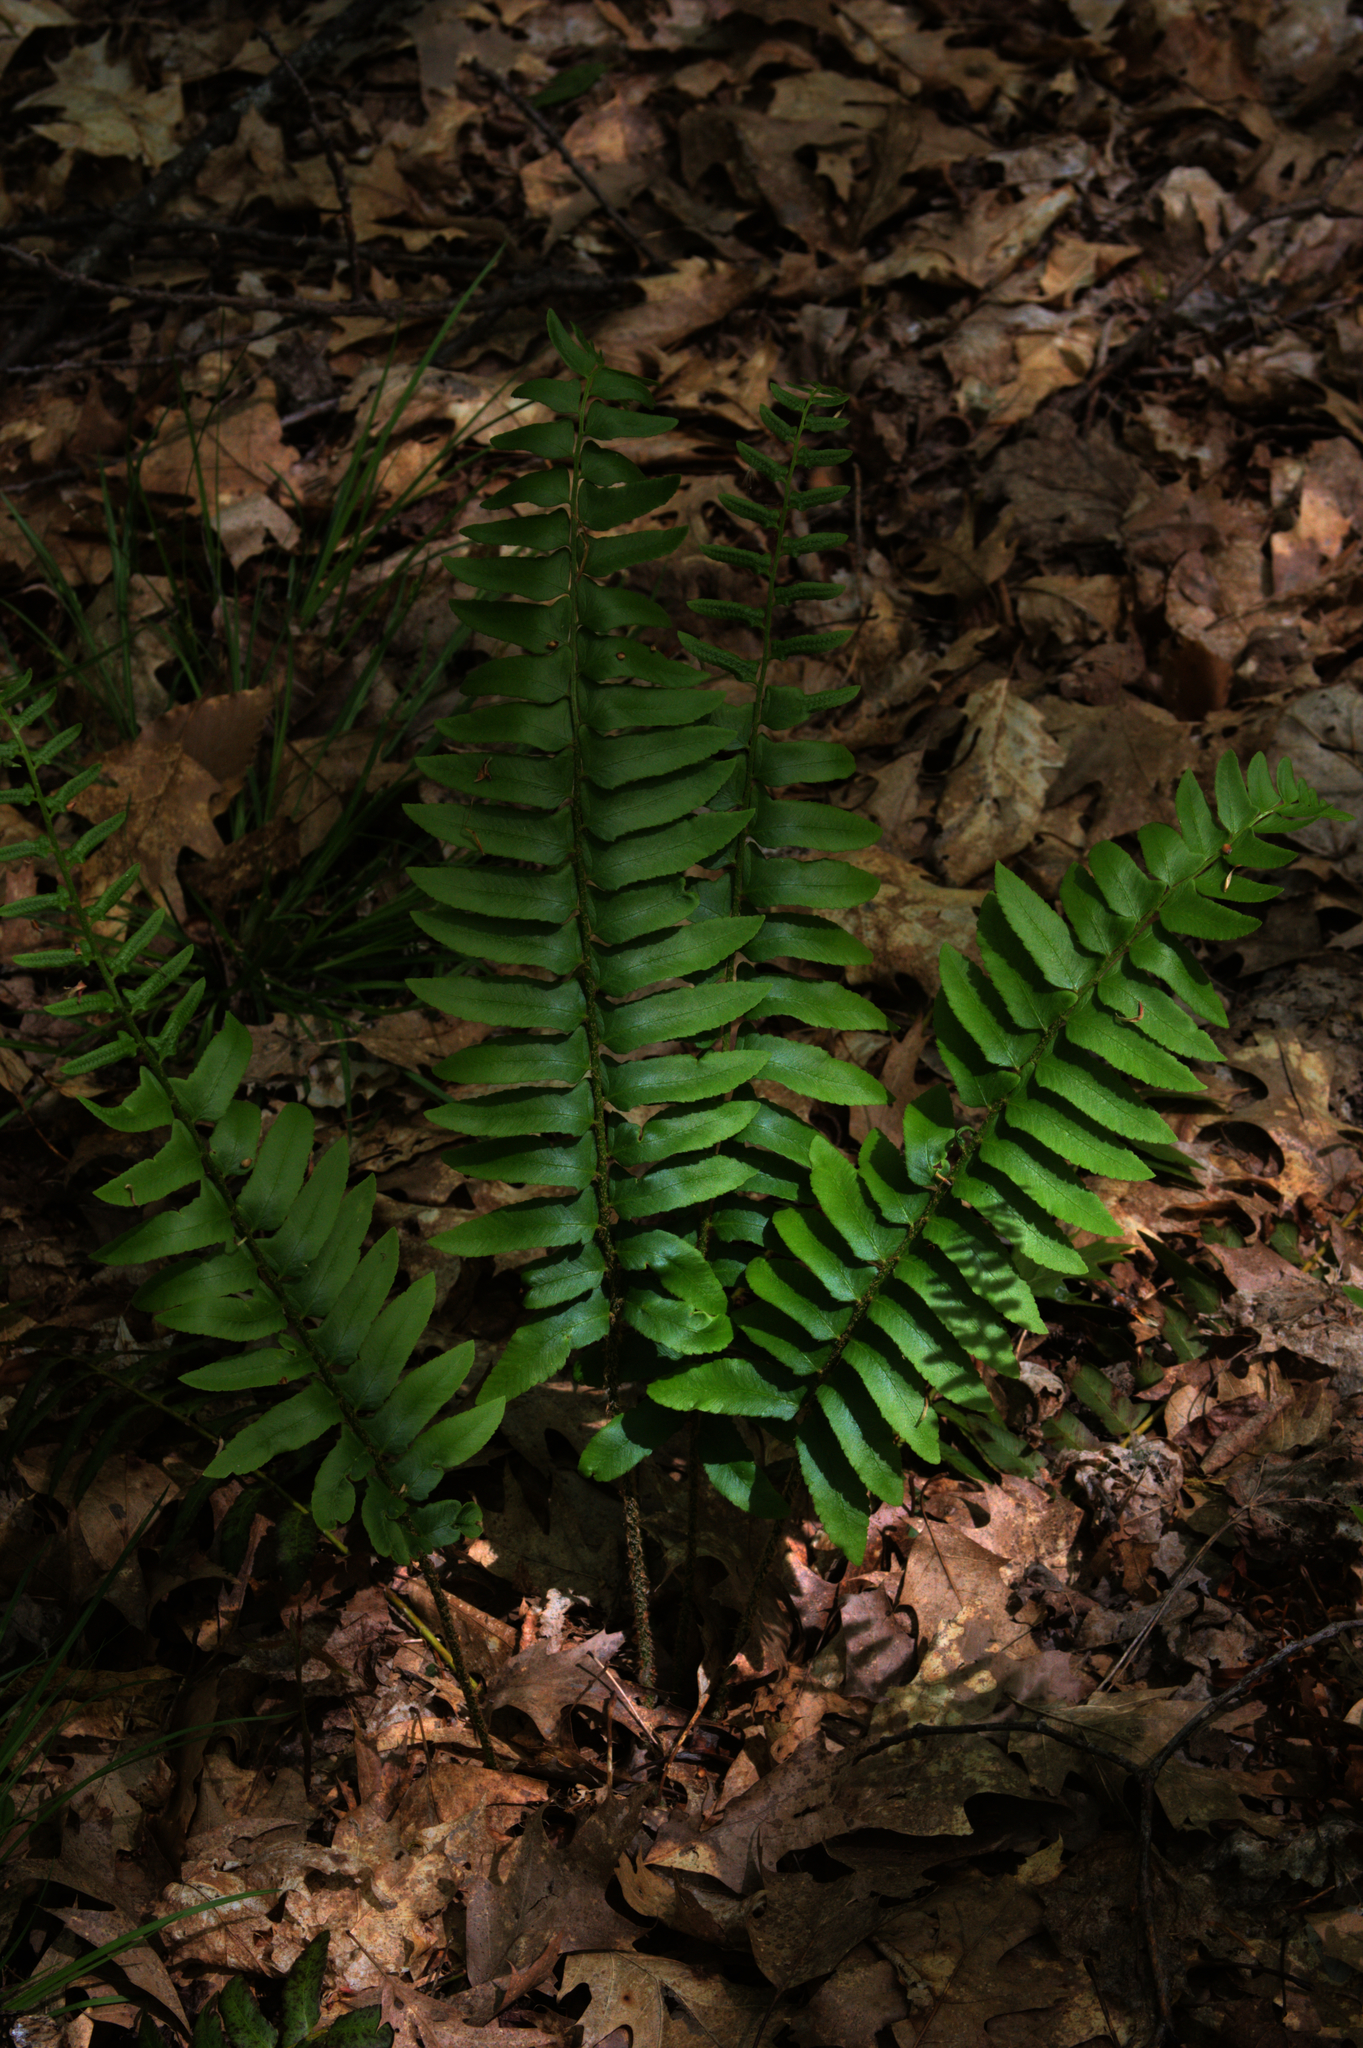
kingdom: Plantae
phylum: Tracheophyta
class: Polypodiopsida
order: Polypodiales
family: Dryopteridaceae
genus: Polystichum
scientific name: Polystichum acrostichoides
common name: Christmas fern
